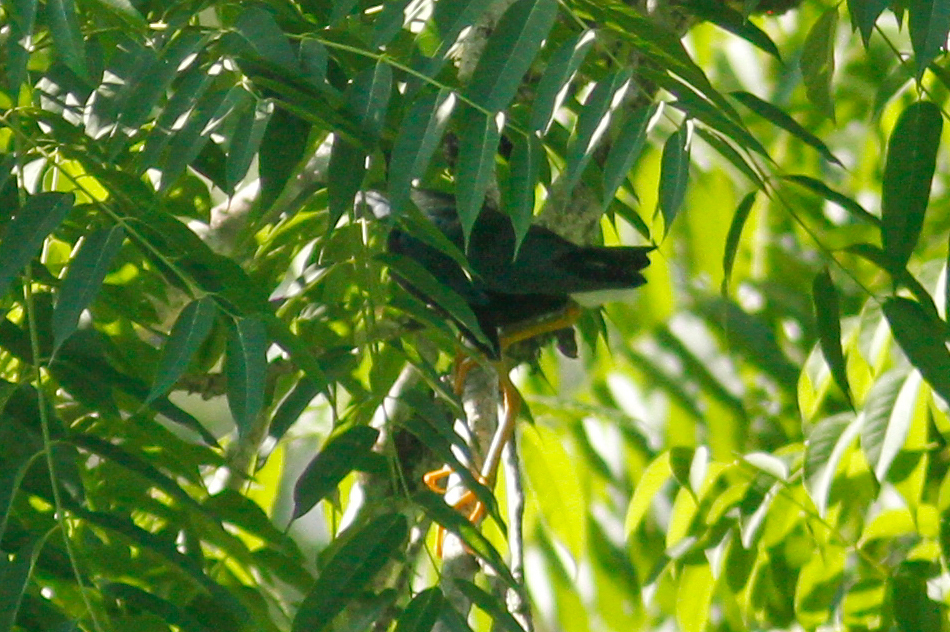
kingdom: Animalia
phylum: Chordata
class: Aves
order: Gruiformes
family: Rallidae
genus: Porphyrio
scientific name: Porphyrio martinica
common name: Purple gallinule
